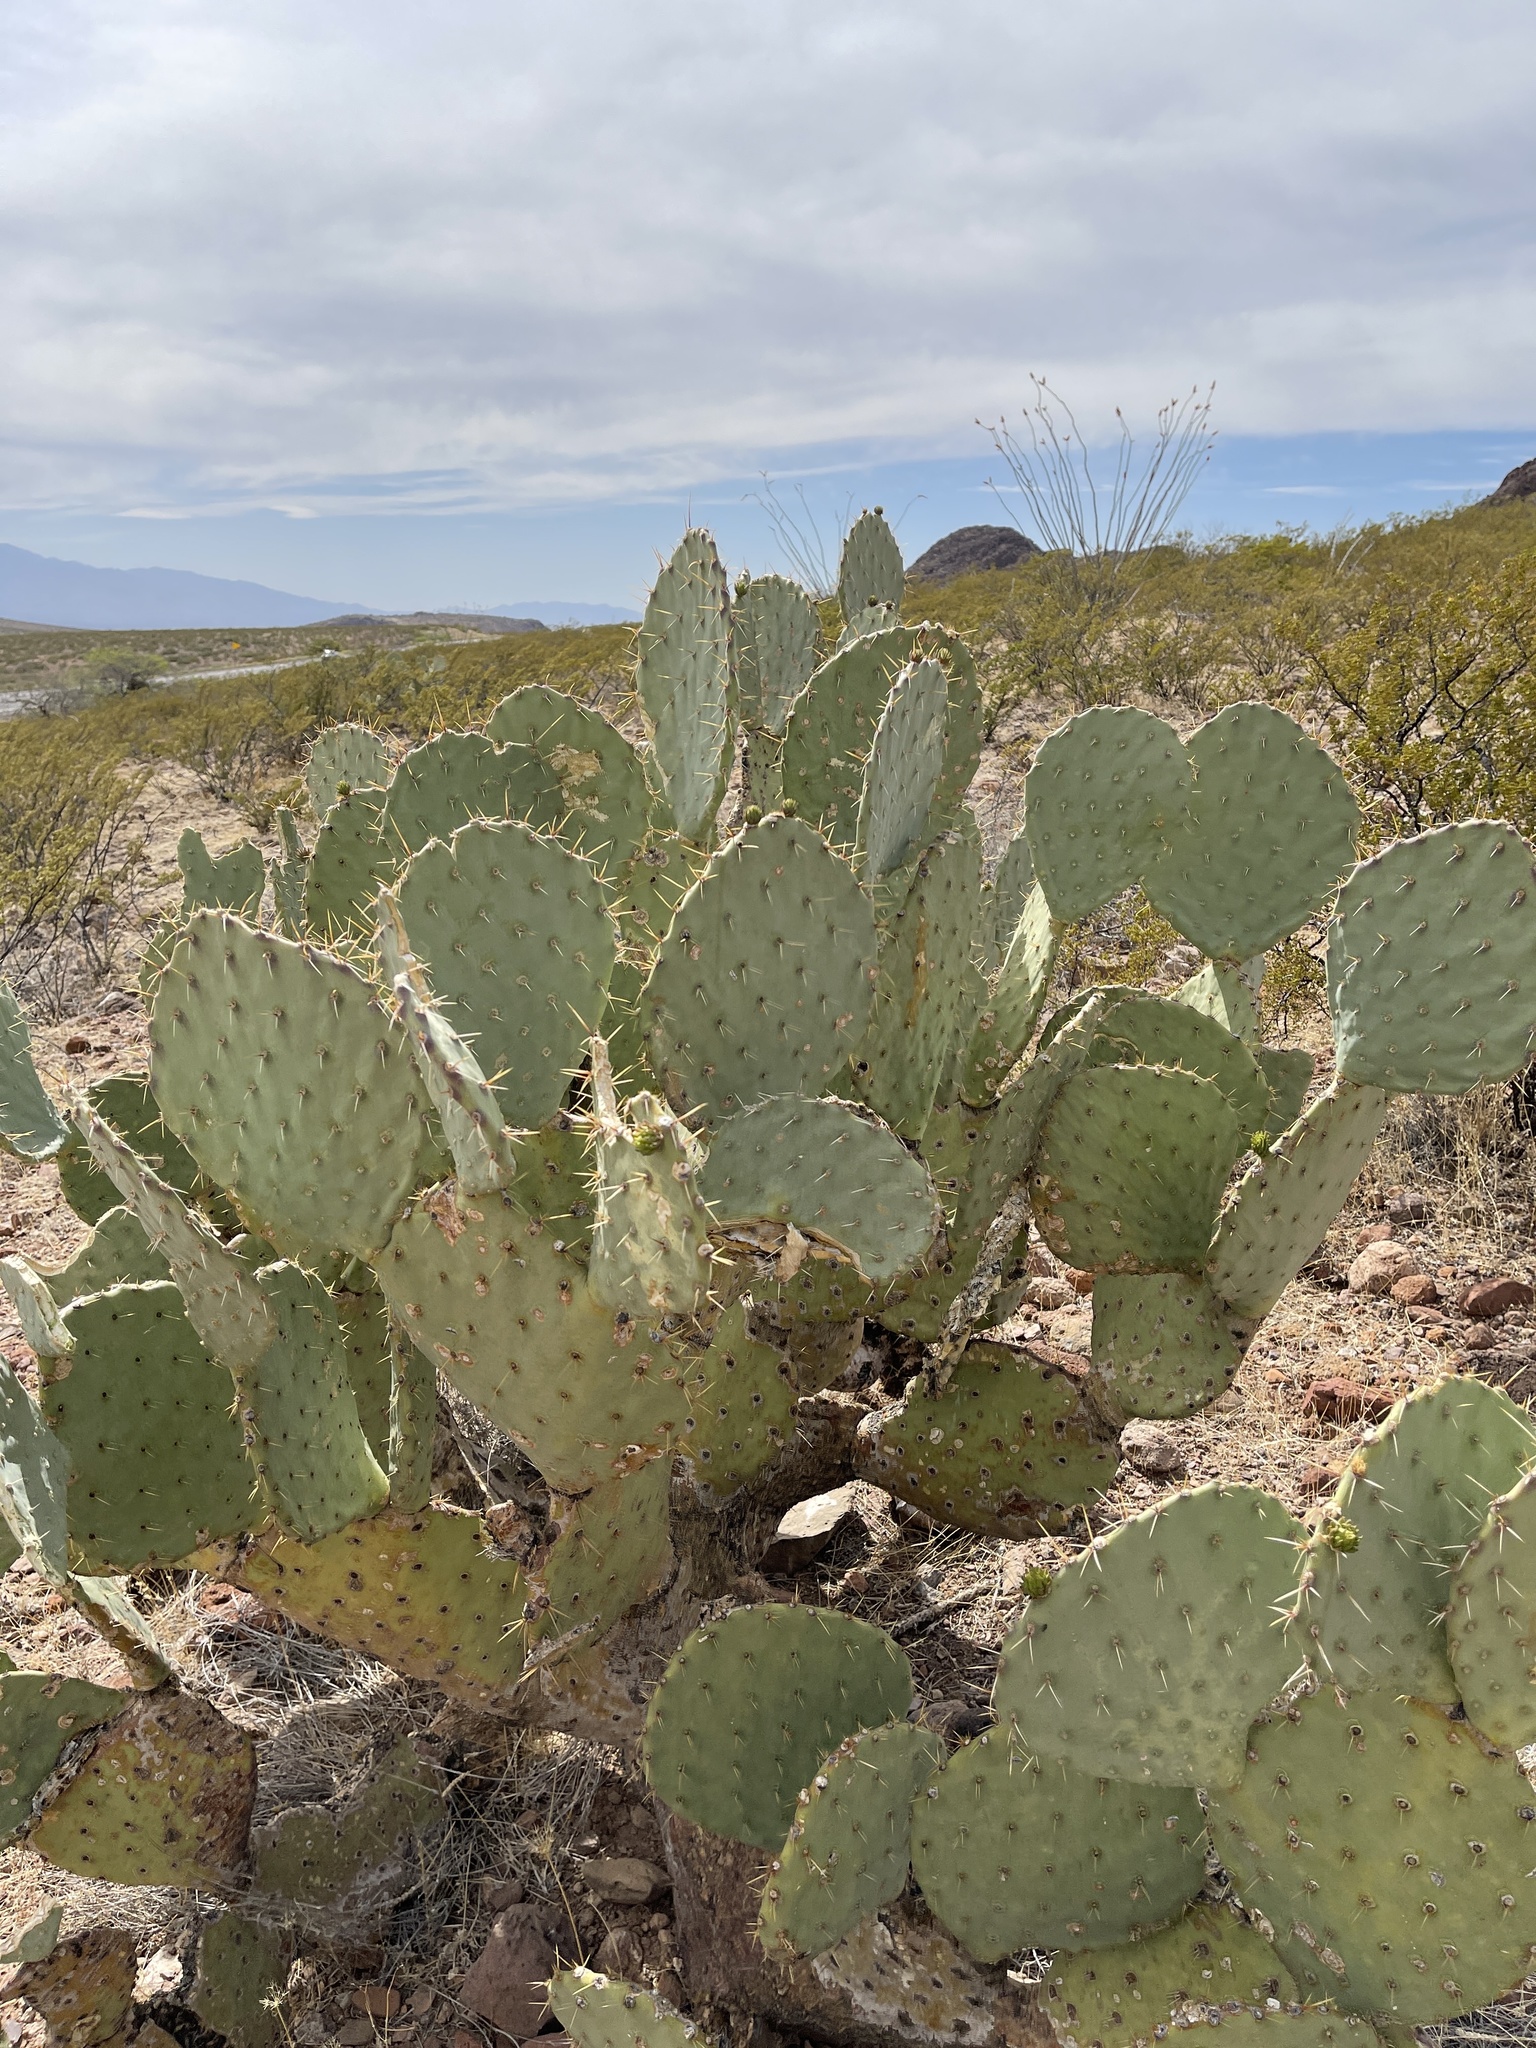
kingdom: Plantae
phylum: Tracheophyta
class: Magnoliopsida
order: Caryophyllales
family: Cactaceae
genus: Opuntia
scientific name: Opuntia engelmannii
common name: Cactus-apple
